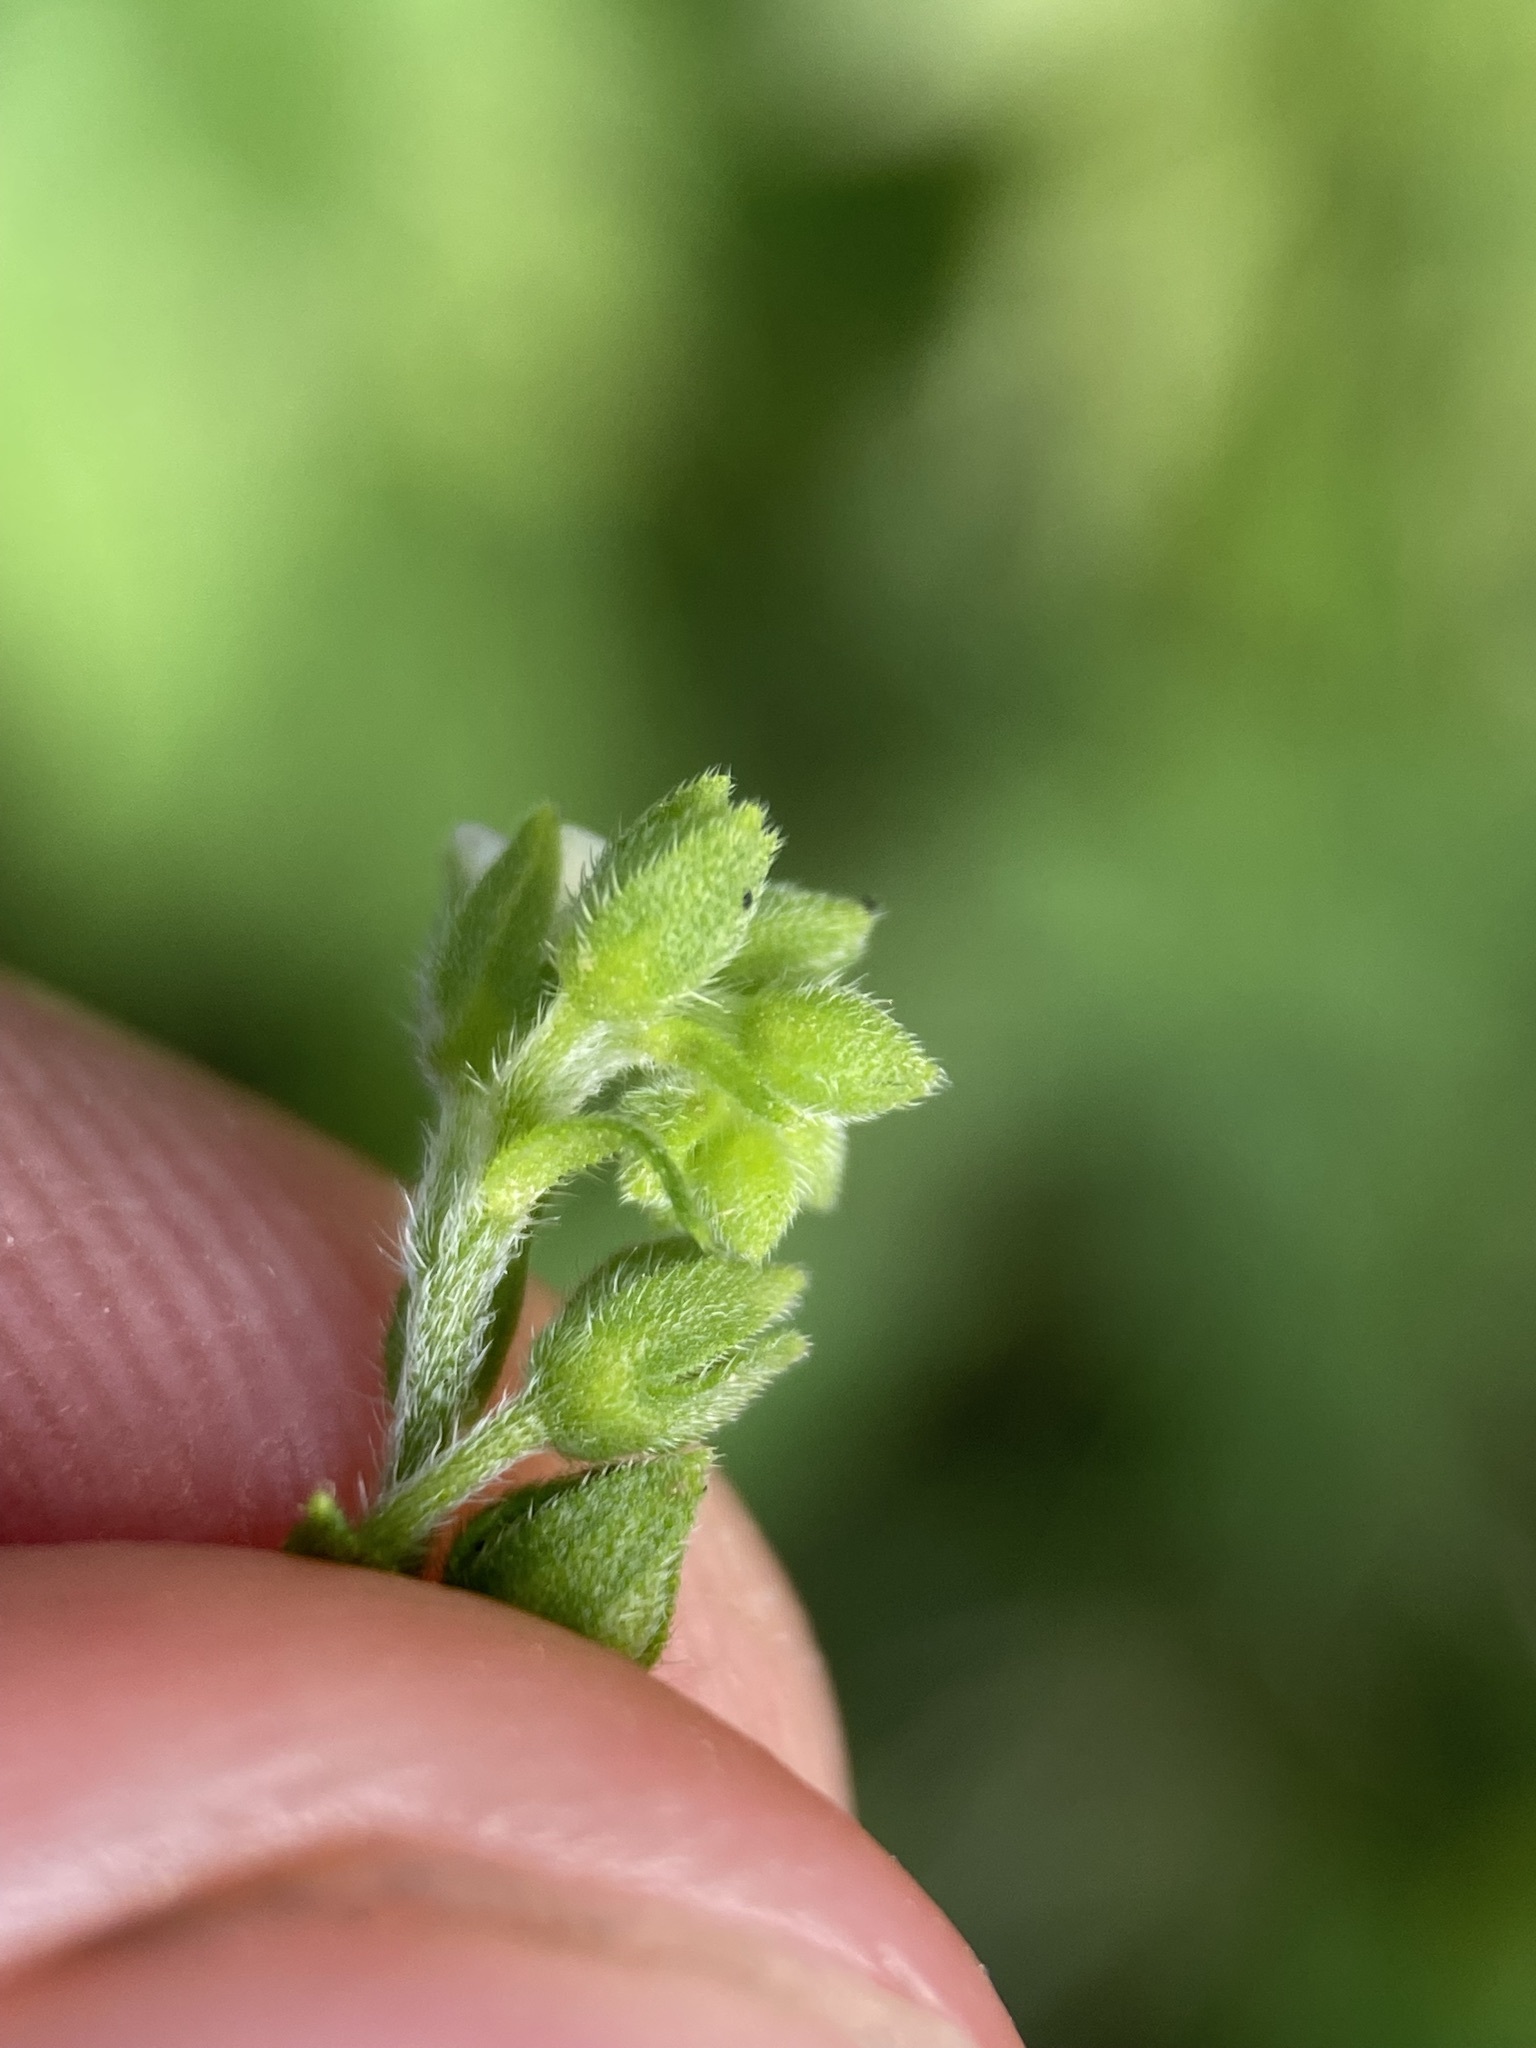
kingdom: Plantae
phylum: Tracheophyta
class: Magnoliopsida
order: Boraginales
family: Boraginaceae
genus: Hackelia
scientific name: Hackelia virginiana
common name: Beggar's-lice
